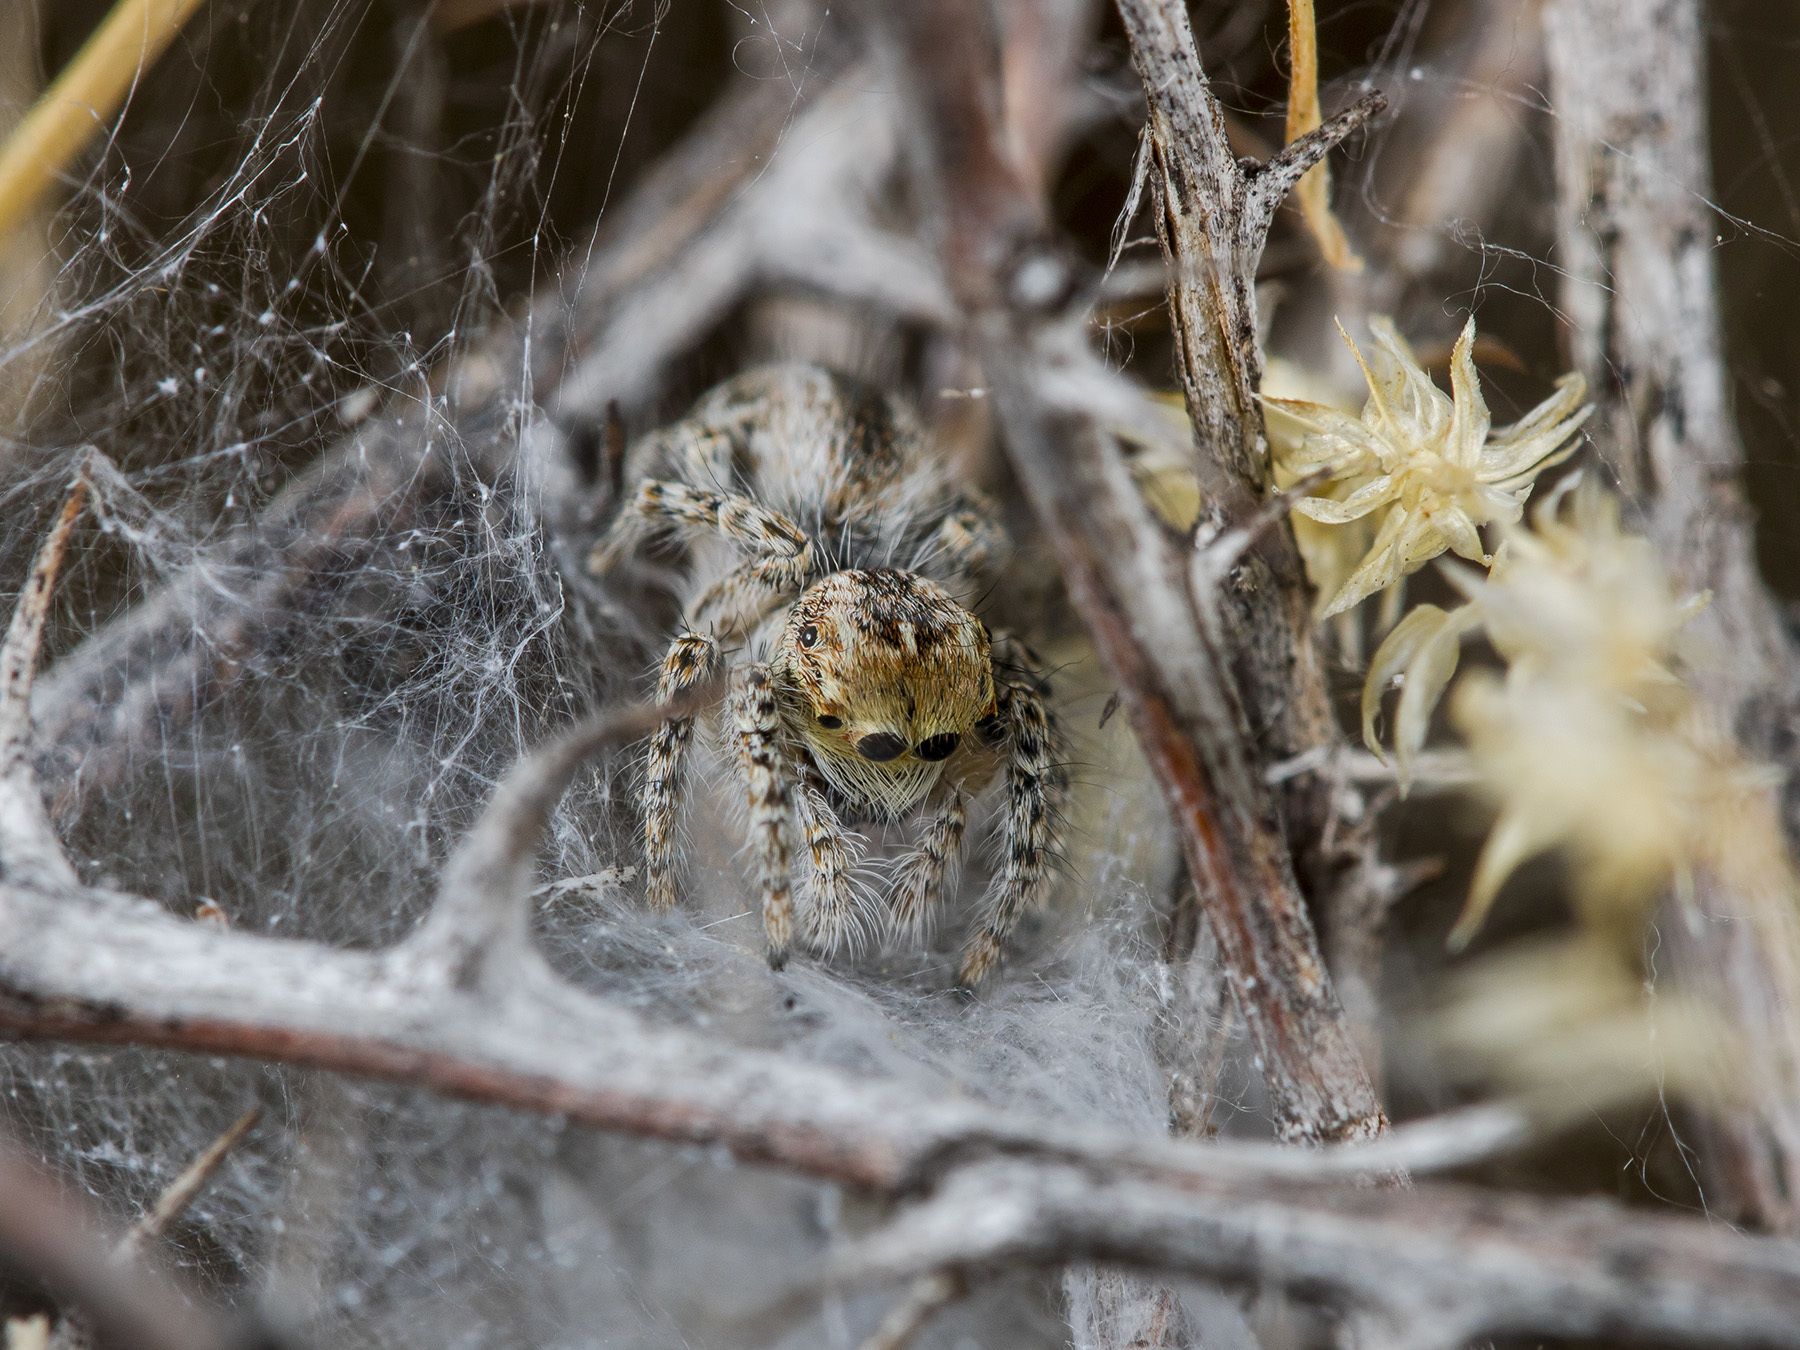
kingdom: Animalia
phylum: Arthropoda
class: Arachnida
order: Araneae
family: Salticidae
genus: Mogrus
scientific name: Mogrus larisae
